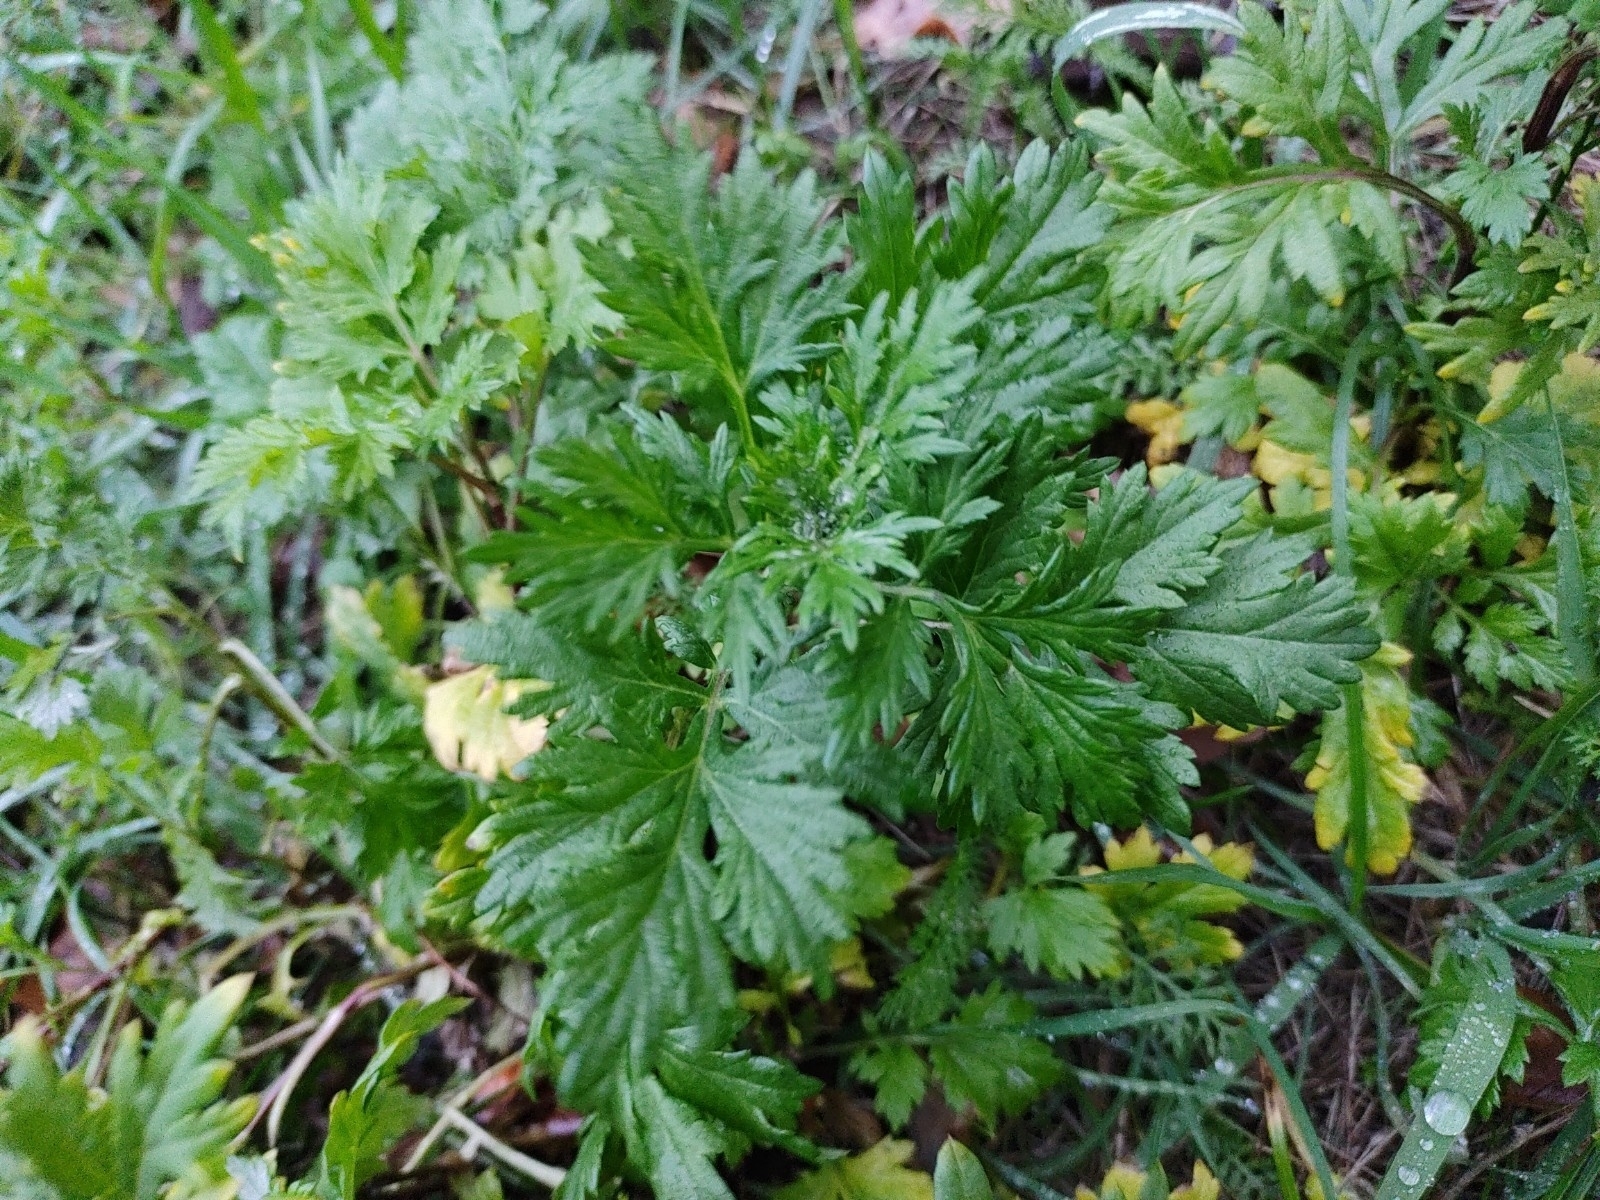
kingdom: Plantae
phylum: Tracheophyta
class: Magnoliopsida
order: Asterales
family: Asteraceae
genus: Artemisia
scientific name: Artemisia vulgaris
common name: Mugwort
